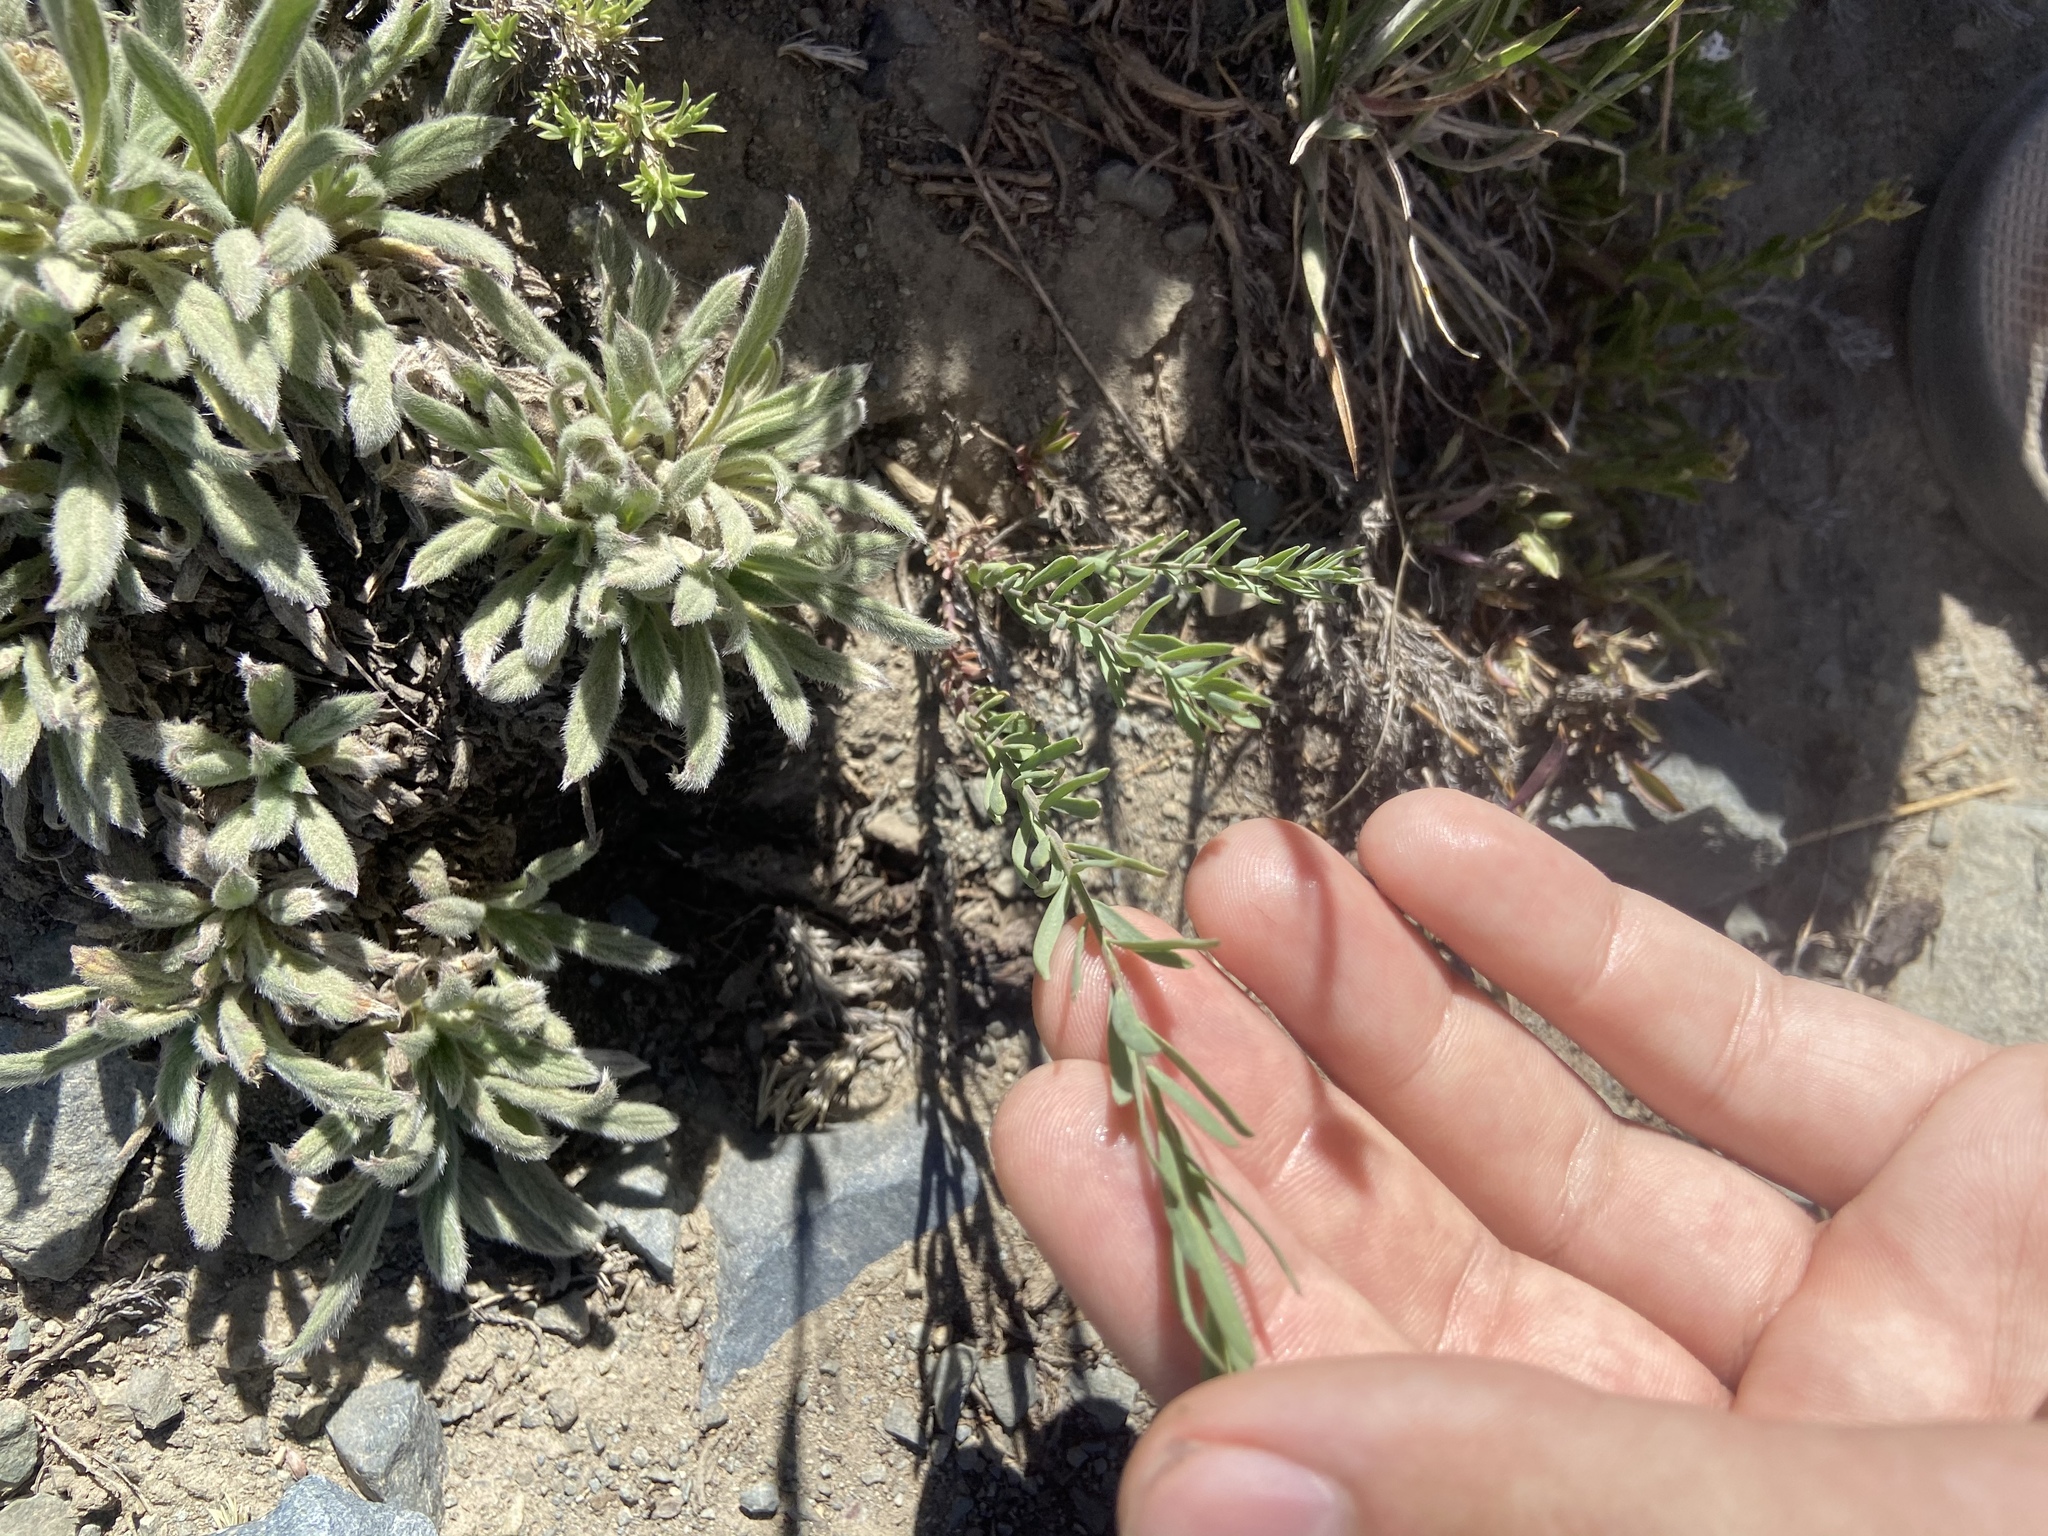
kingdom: Plantae
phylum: Tracheophyta
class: Magnoliopsida
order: Malpighiales
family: Linaceae
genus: Linum
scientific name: Linum lewisii
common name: Prairie flax
